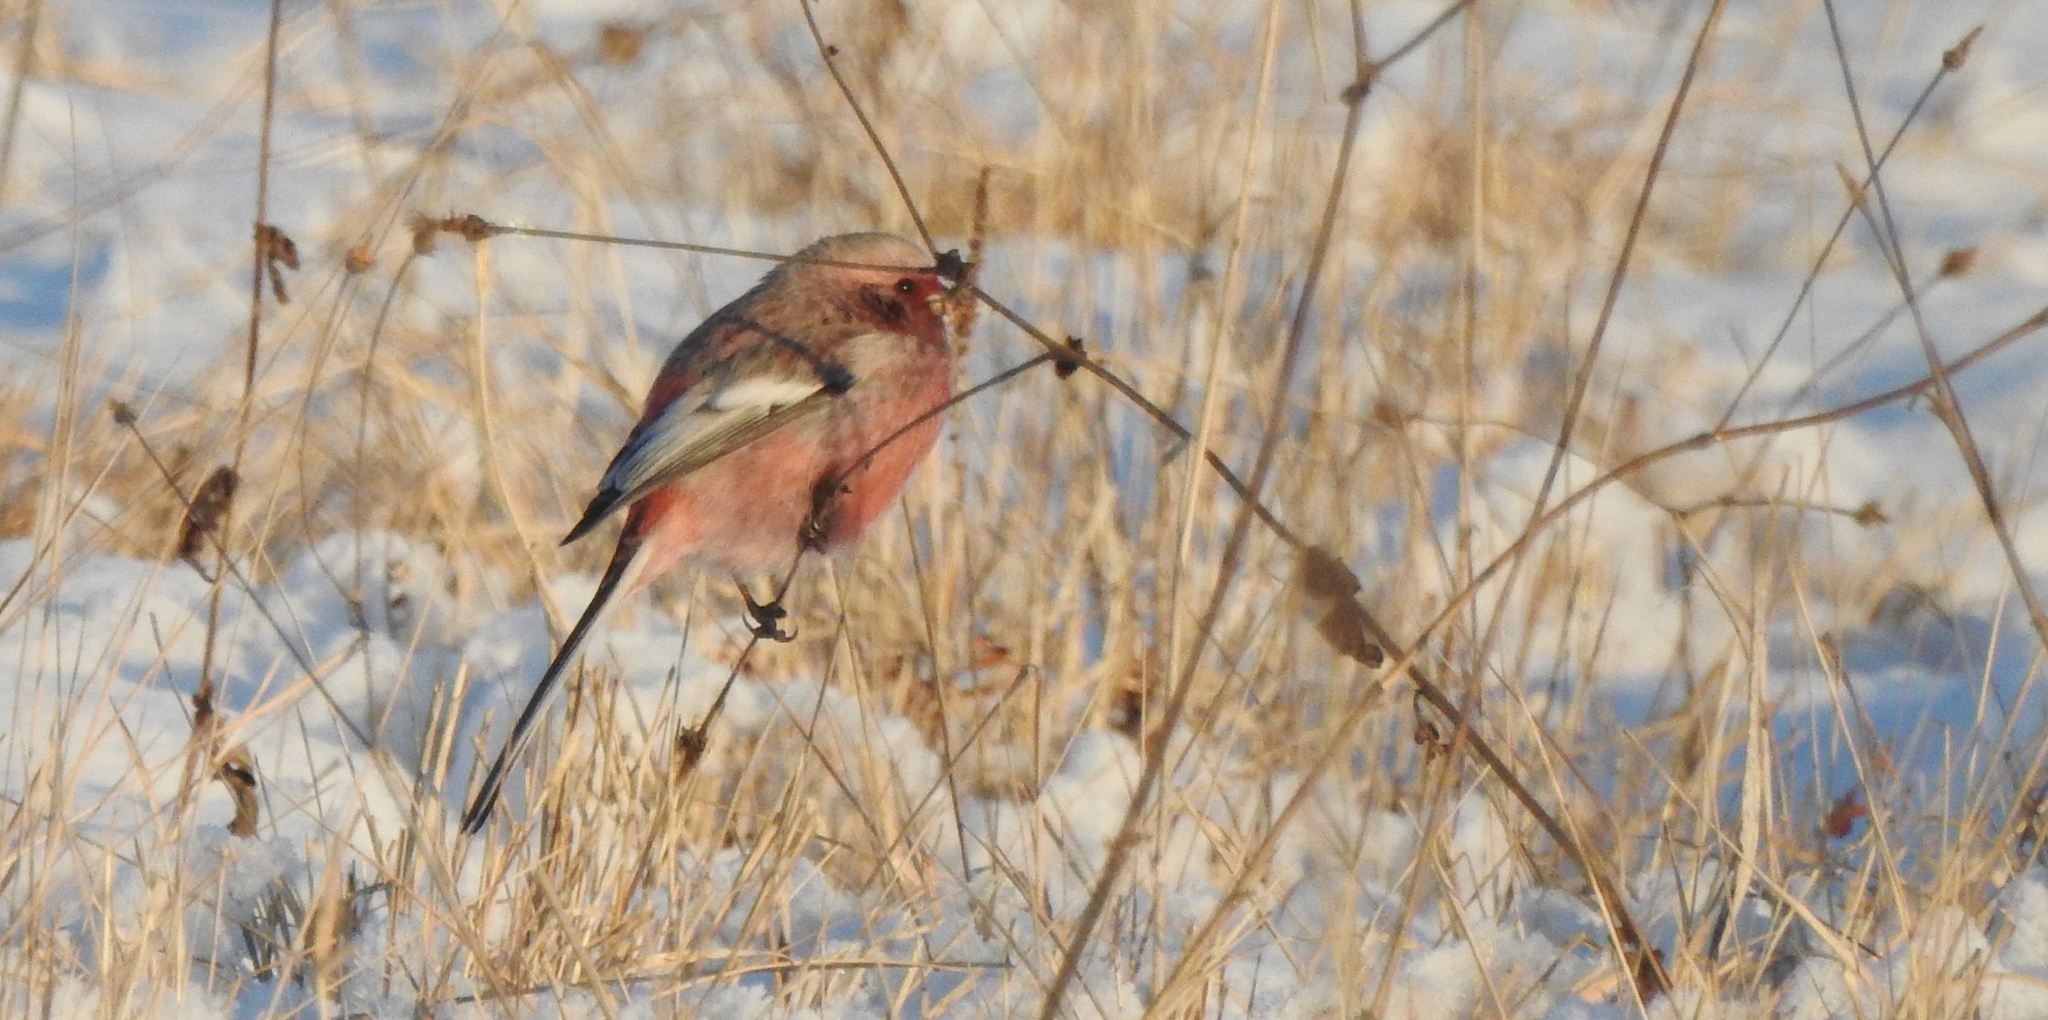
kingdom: Animalia
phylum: Chordata
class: Aves
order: Passeriformes
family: Fringillidae
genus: Carpodacus
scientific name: Carpodacus sibiricus
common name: Long-tailed rosefinch
